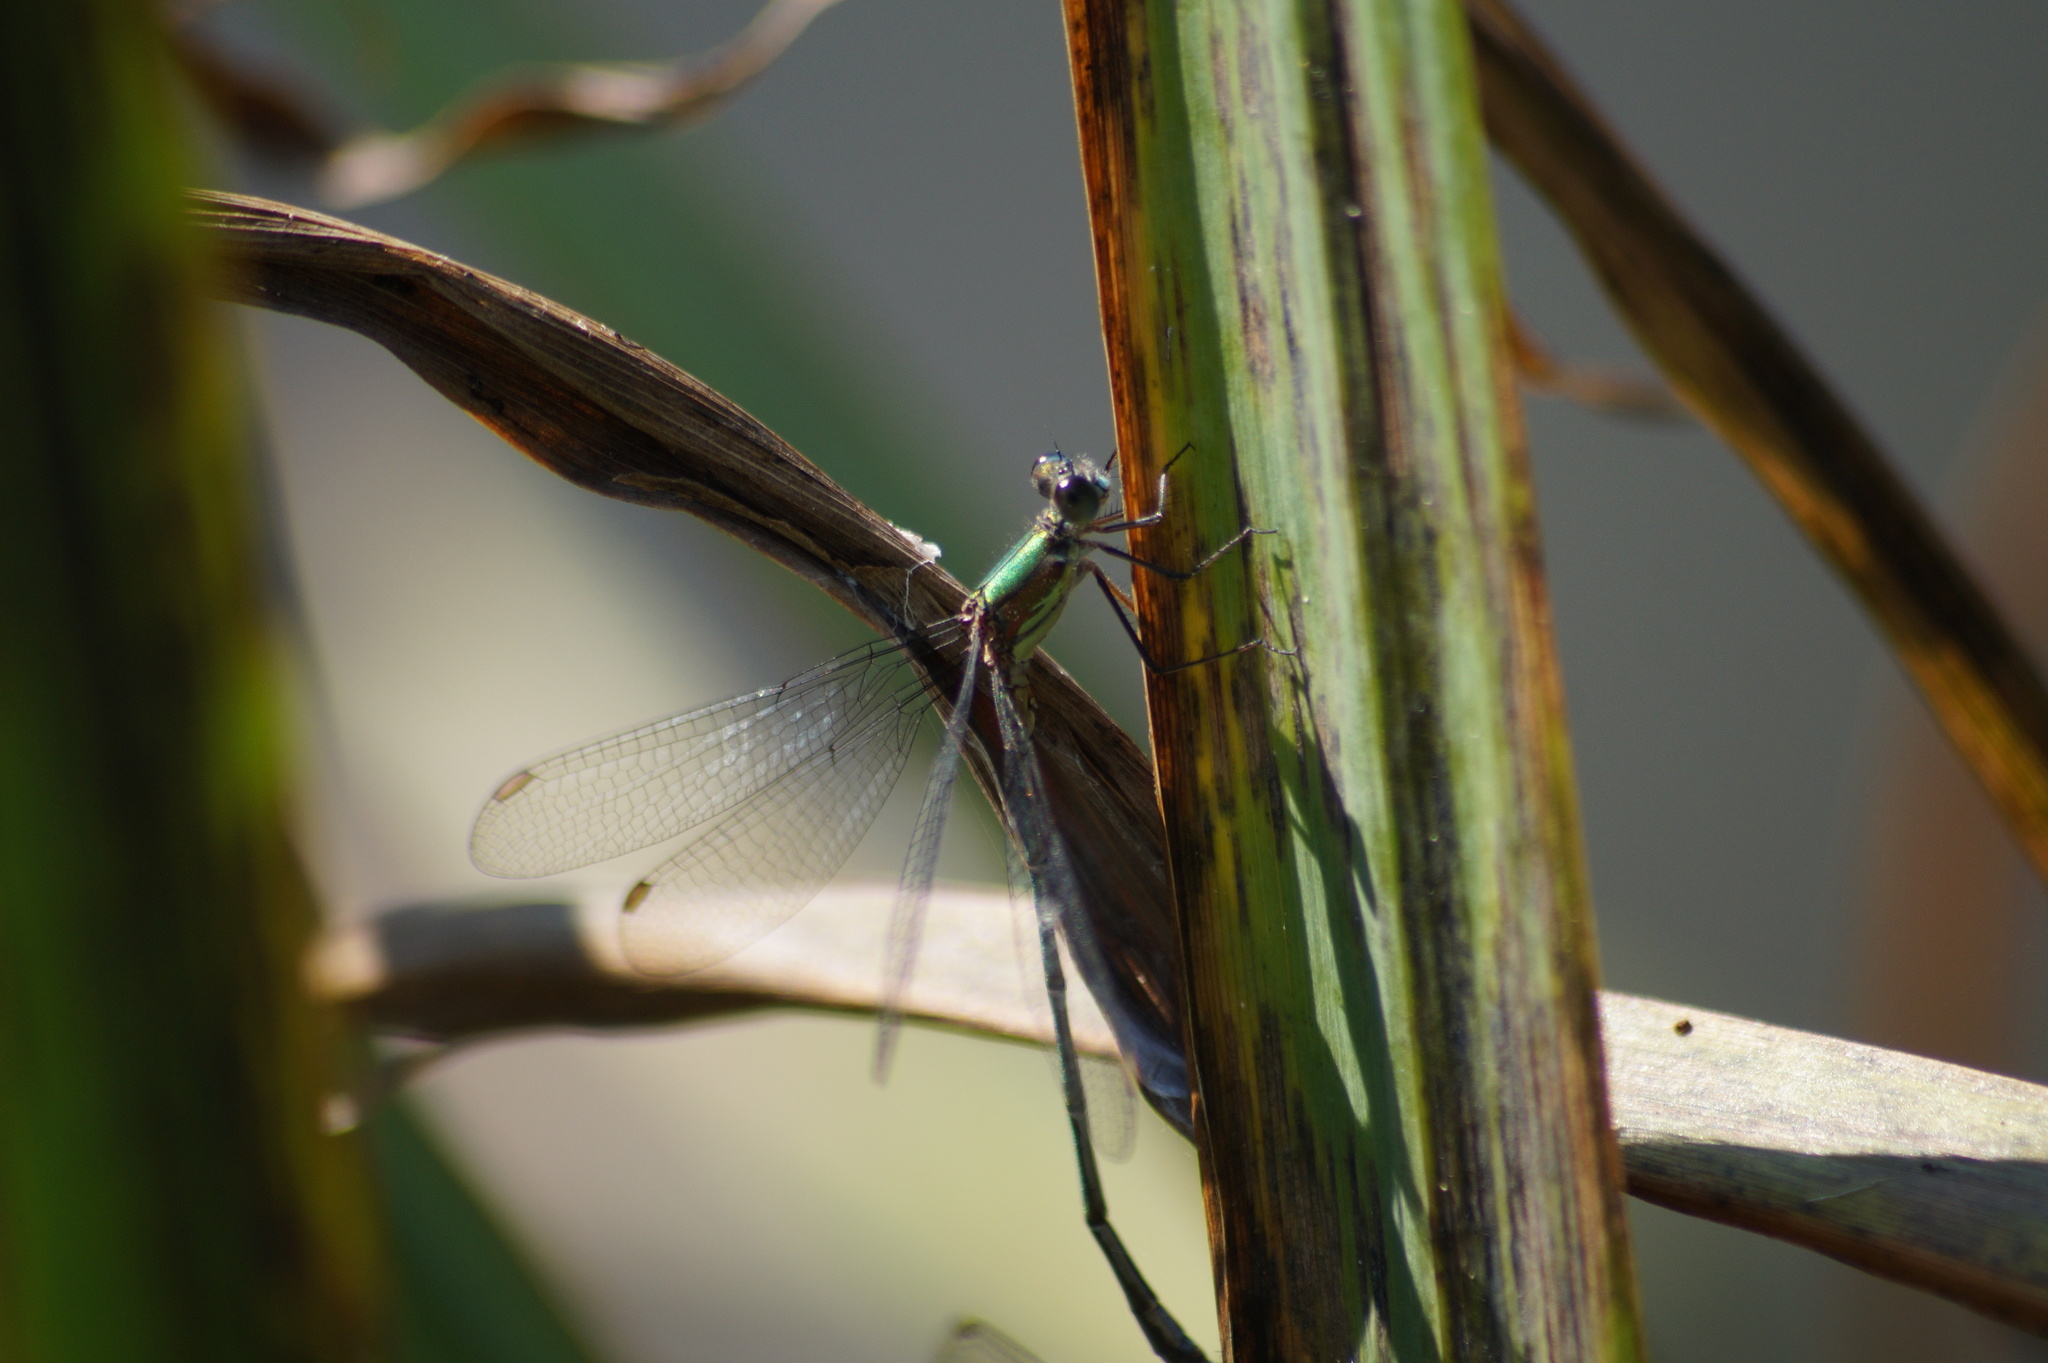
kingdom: Animalia
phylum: Arthropoda
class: Insecta
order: Odonata
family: Lestidae
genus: Chalcolestes
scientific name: Chalcolestes viridis
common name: Green emerald damselfly
